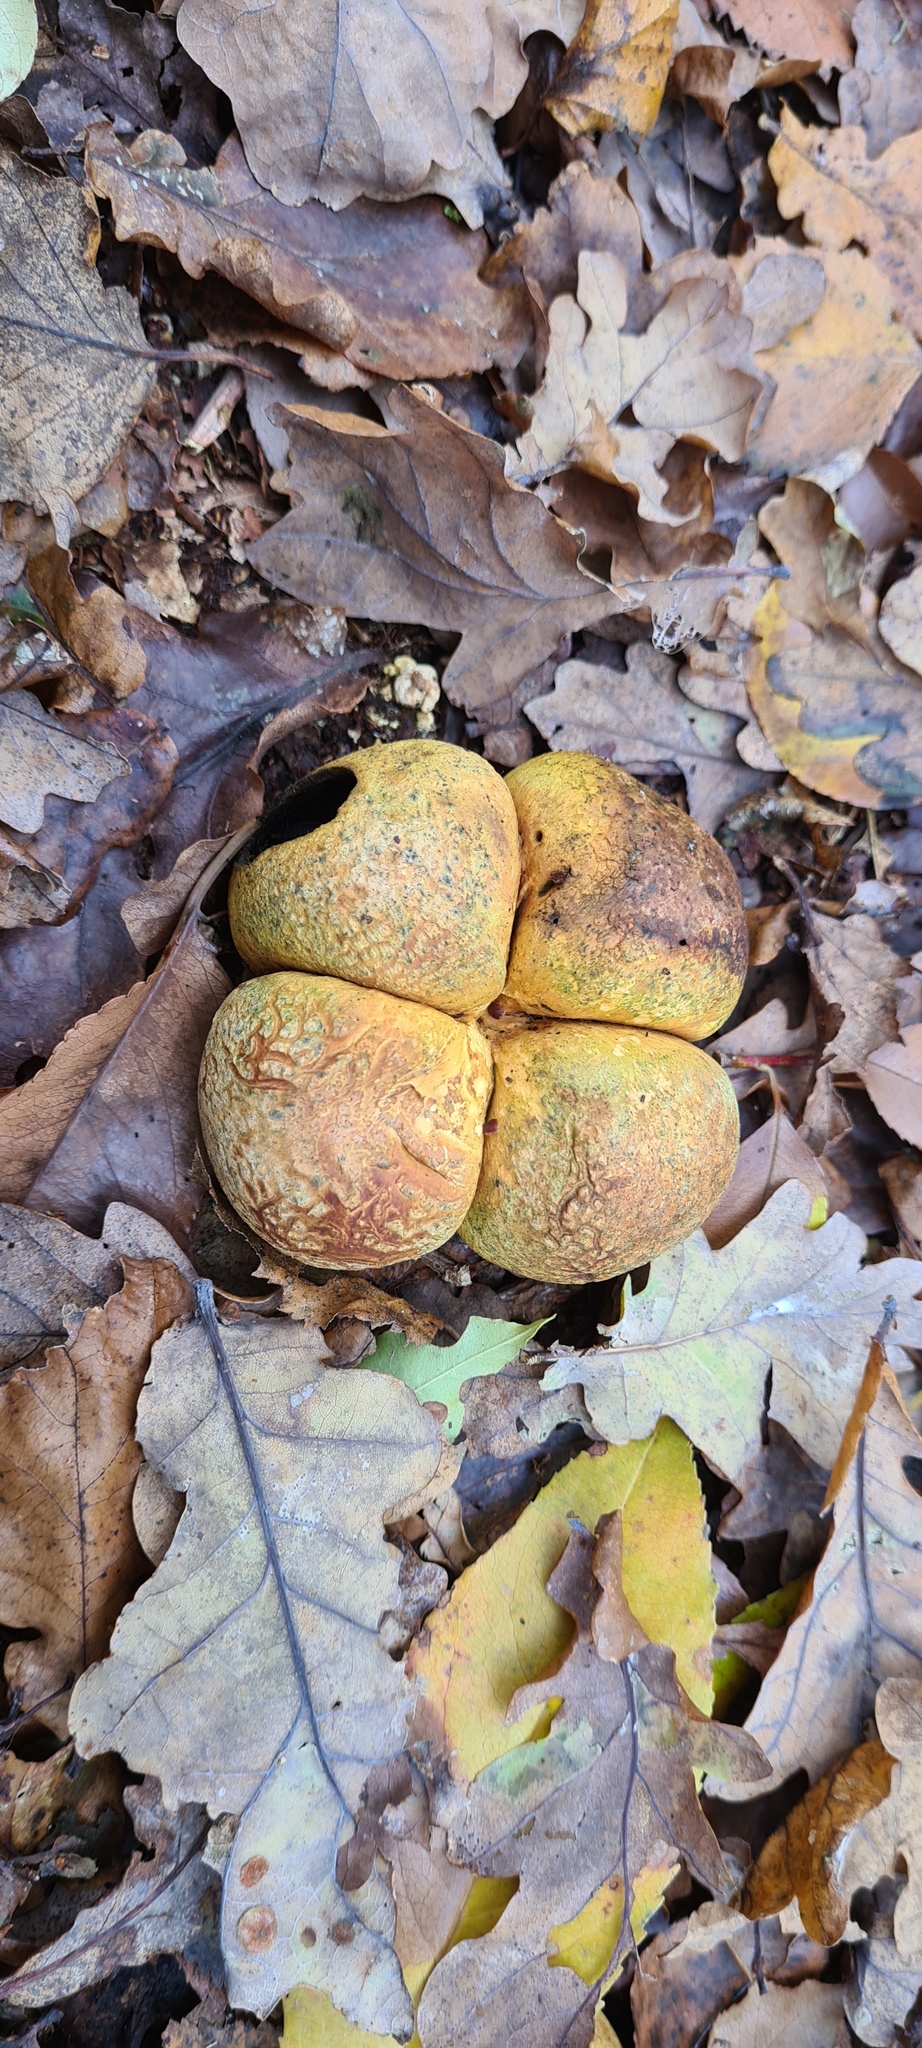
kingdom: Fungi
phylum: Basidiomycota
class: Agaricomycetes
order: Boletales
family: Sclerodermataceae
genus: Scleroderma
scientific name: Scleroderma citrinum
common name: Common earthball
